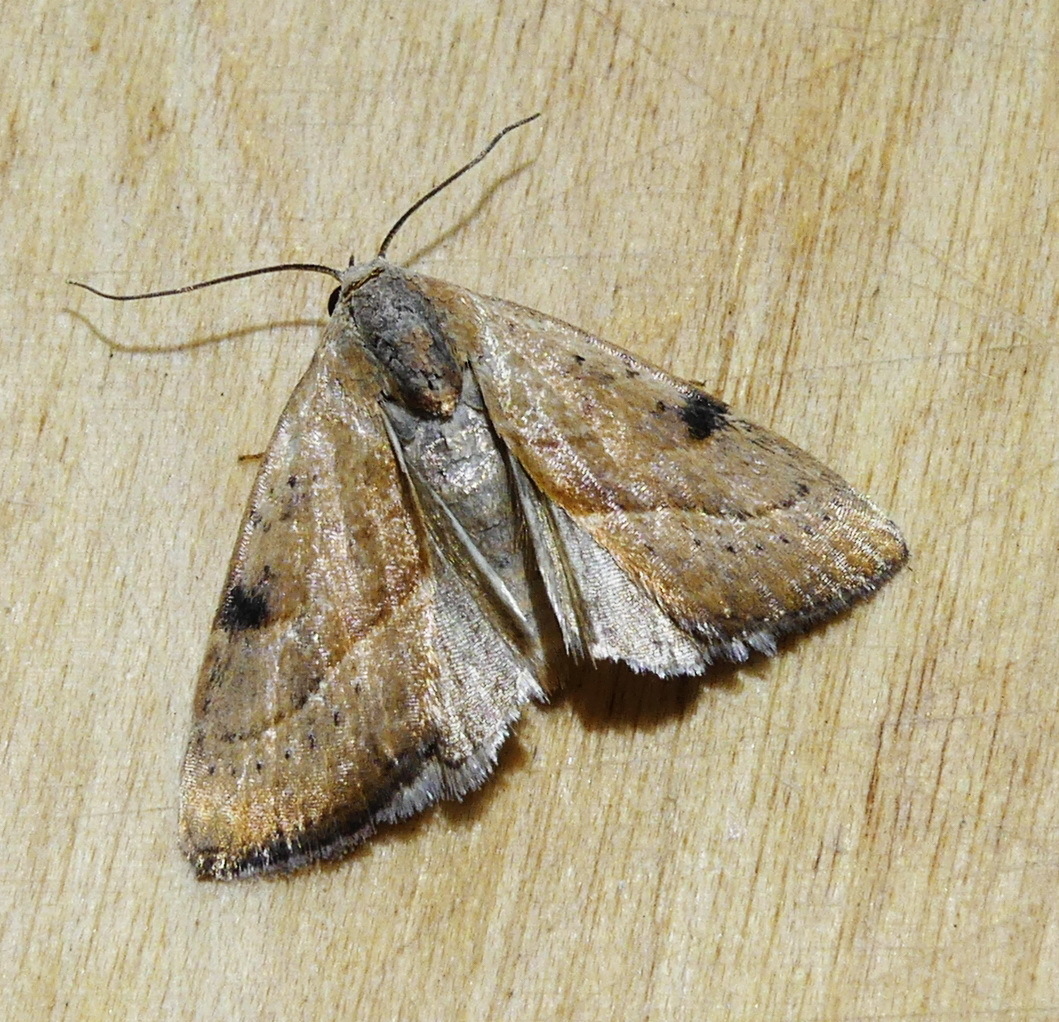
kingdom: Animalia
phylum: Arthropoda
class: Insecta
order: Lepidoptera
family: Noctuidae
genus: Galgula
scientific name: Galgula partita
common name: Wedgeling
